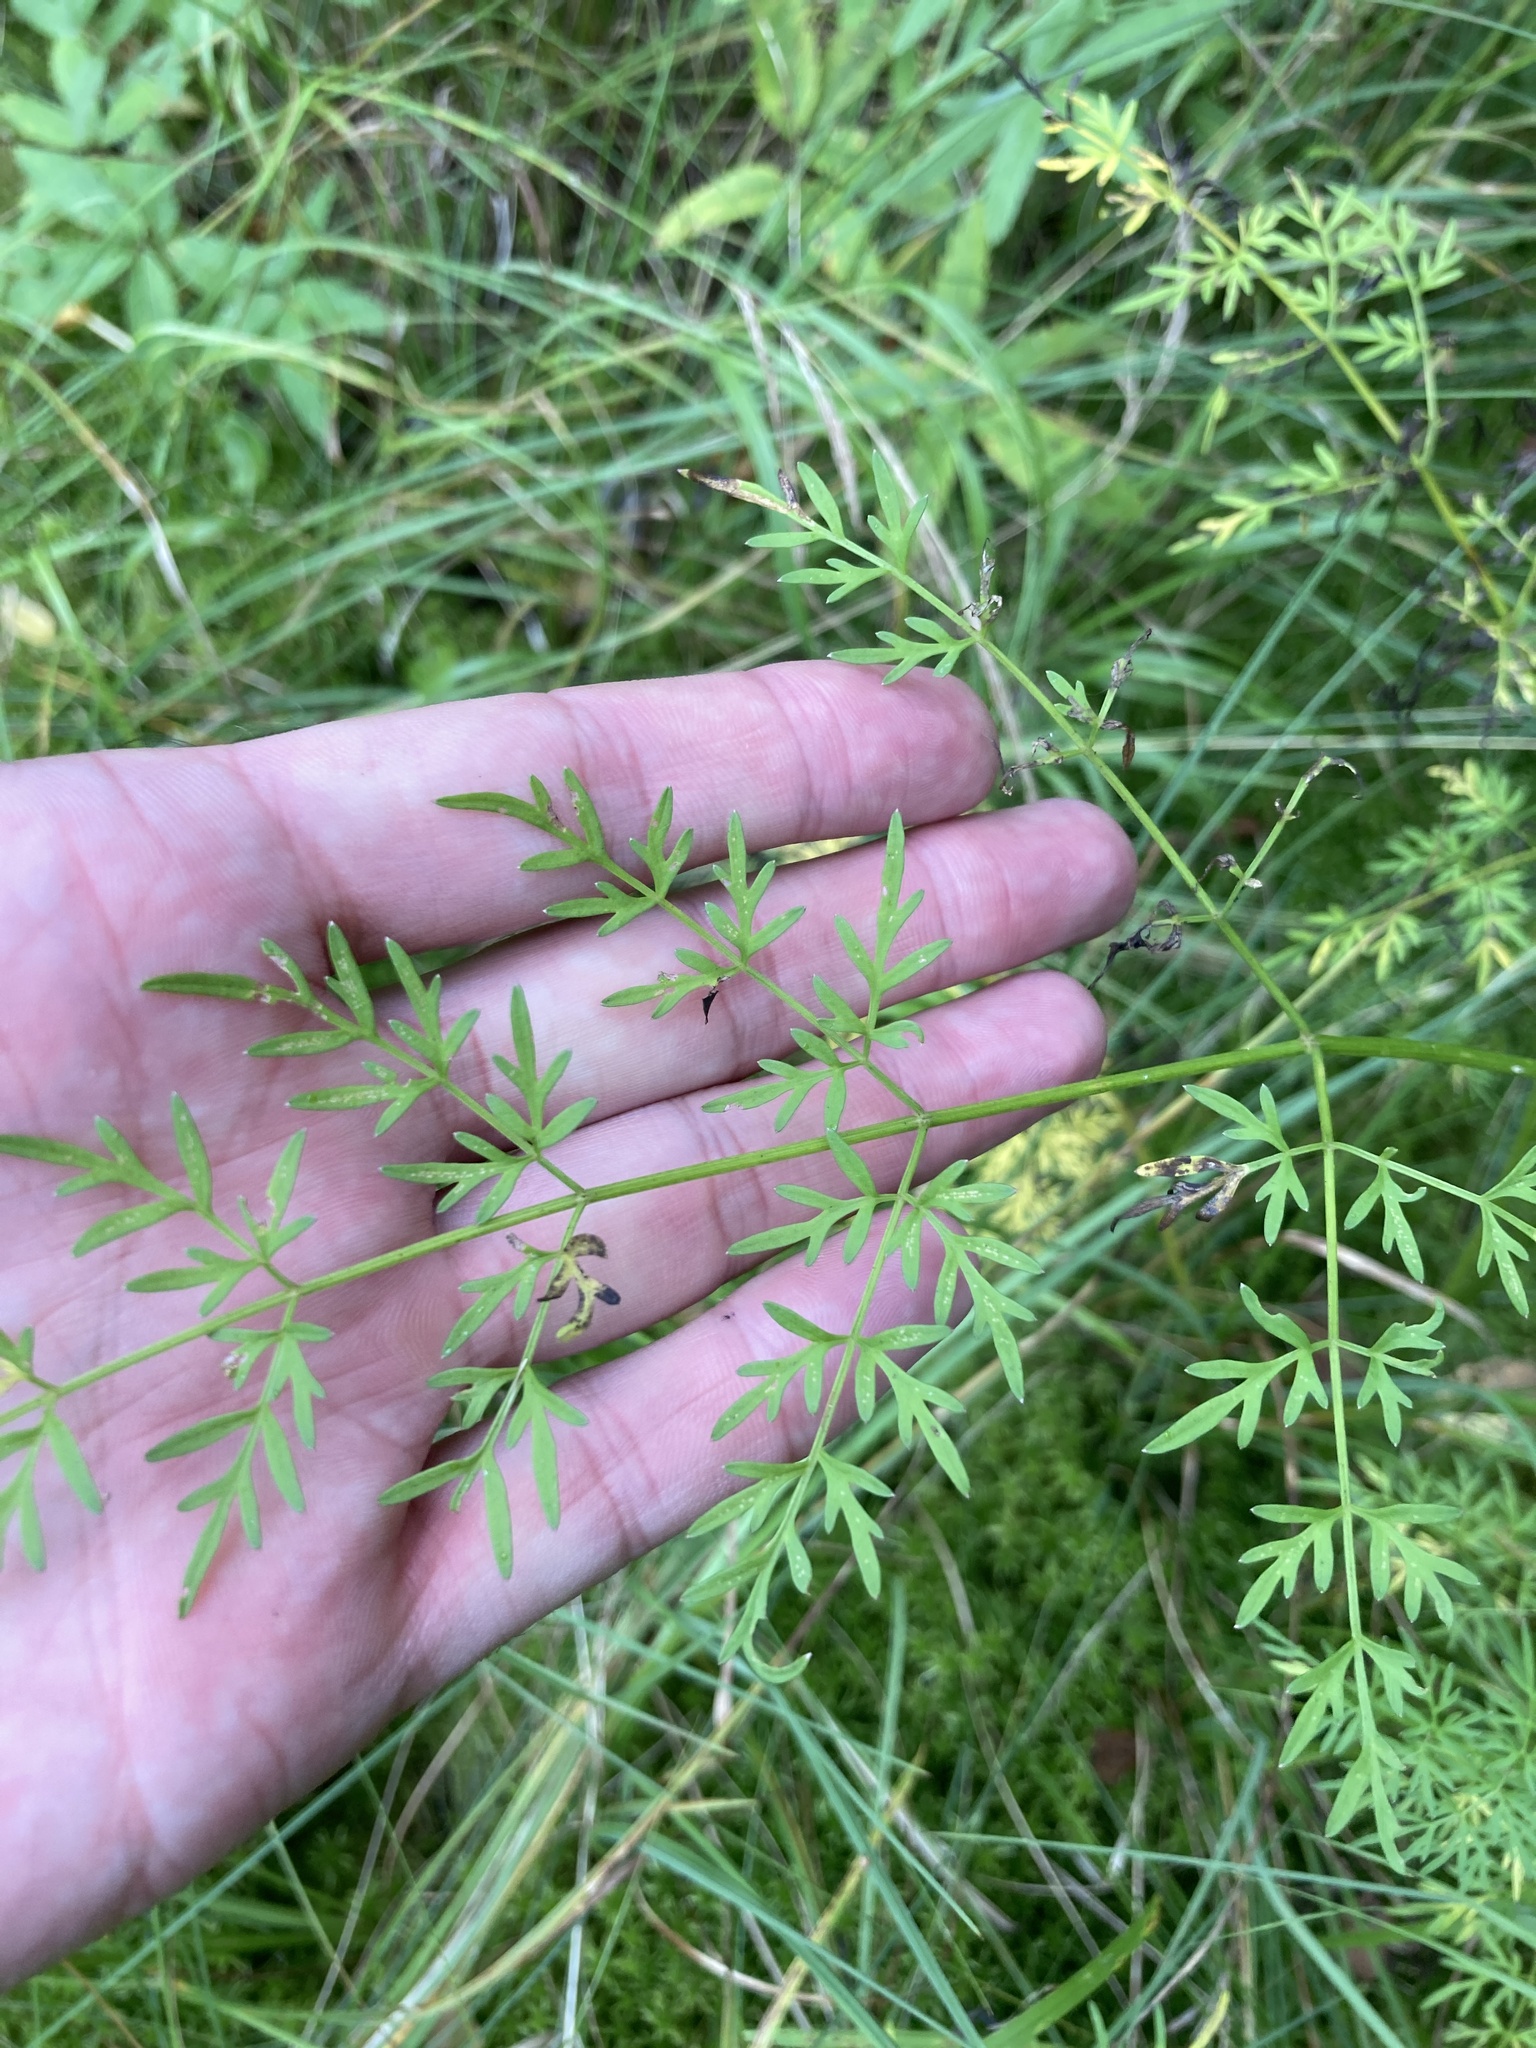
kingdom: Plantae
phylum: Tracheophyta
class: Magnoliopsida
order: Apiales
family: Apiaceae
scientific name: Apiaceae
